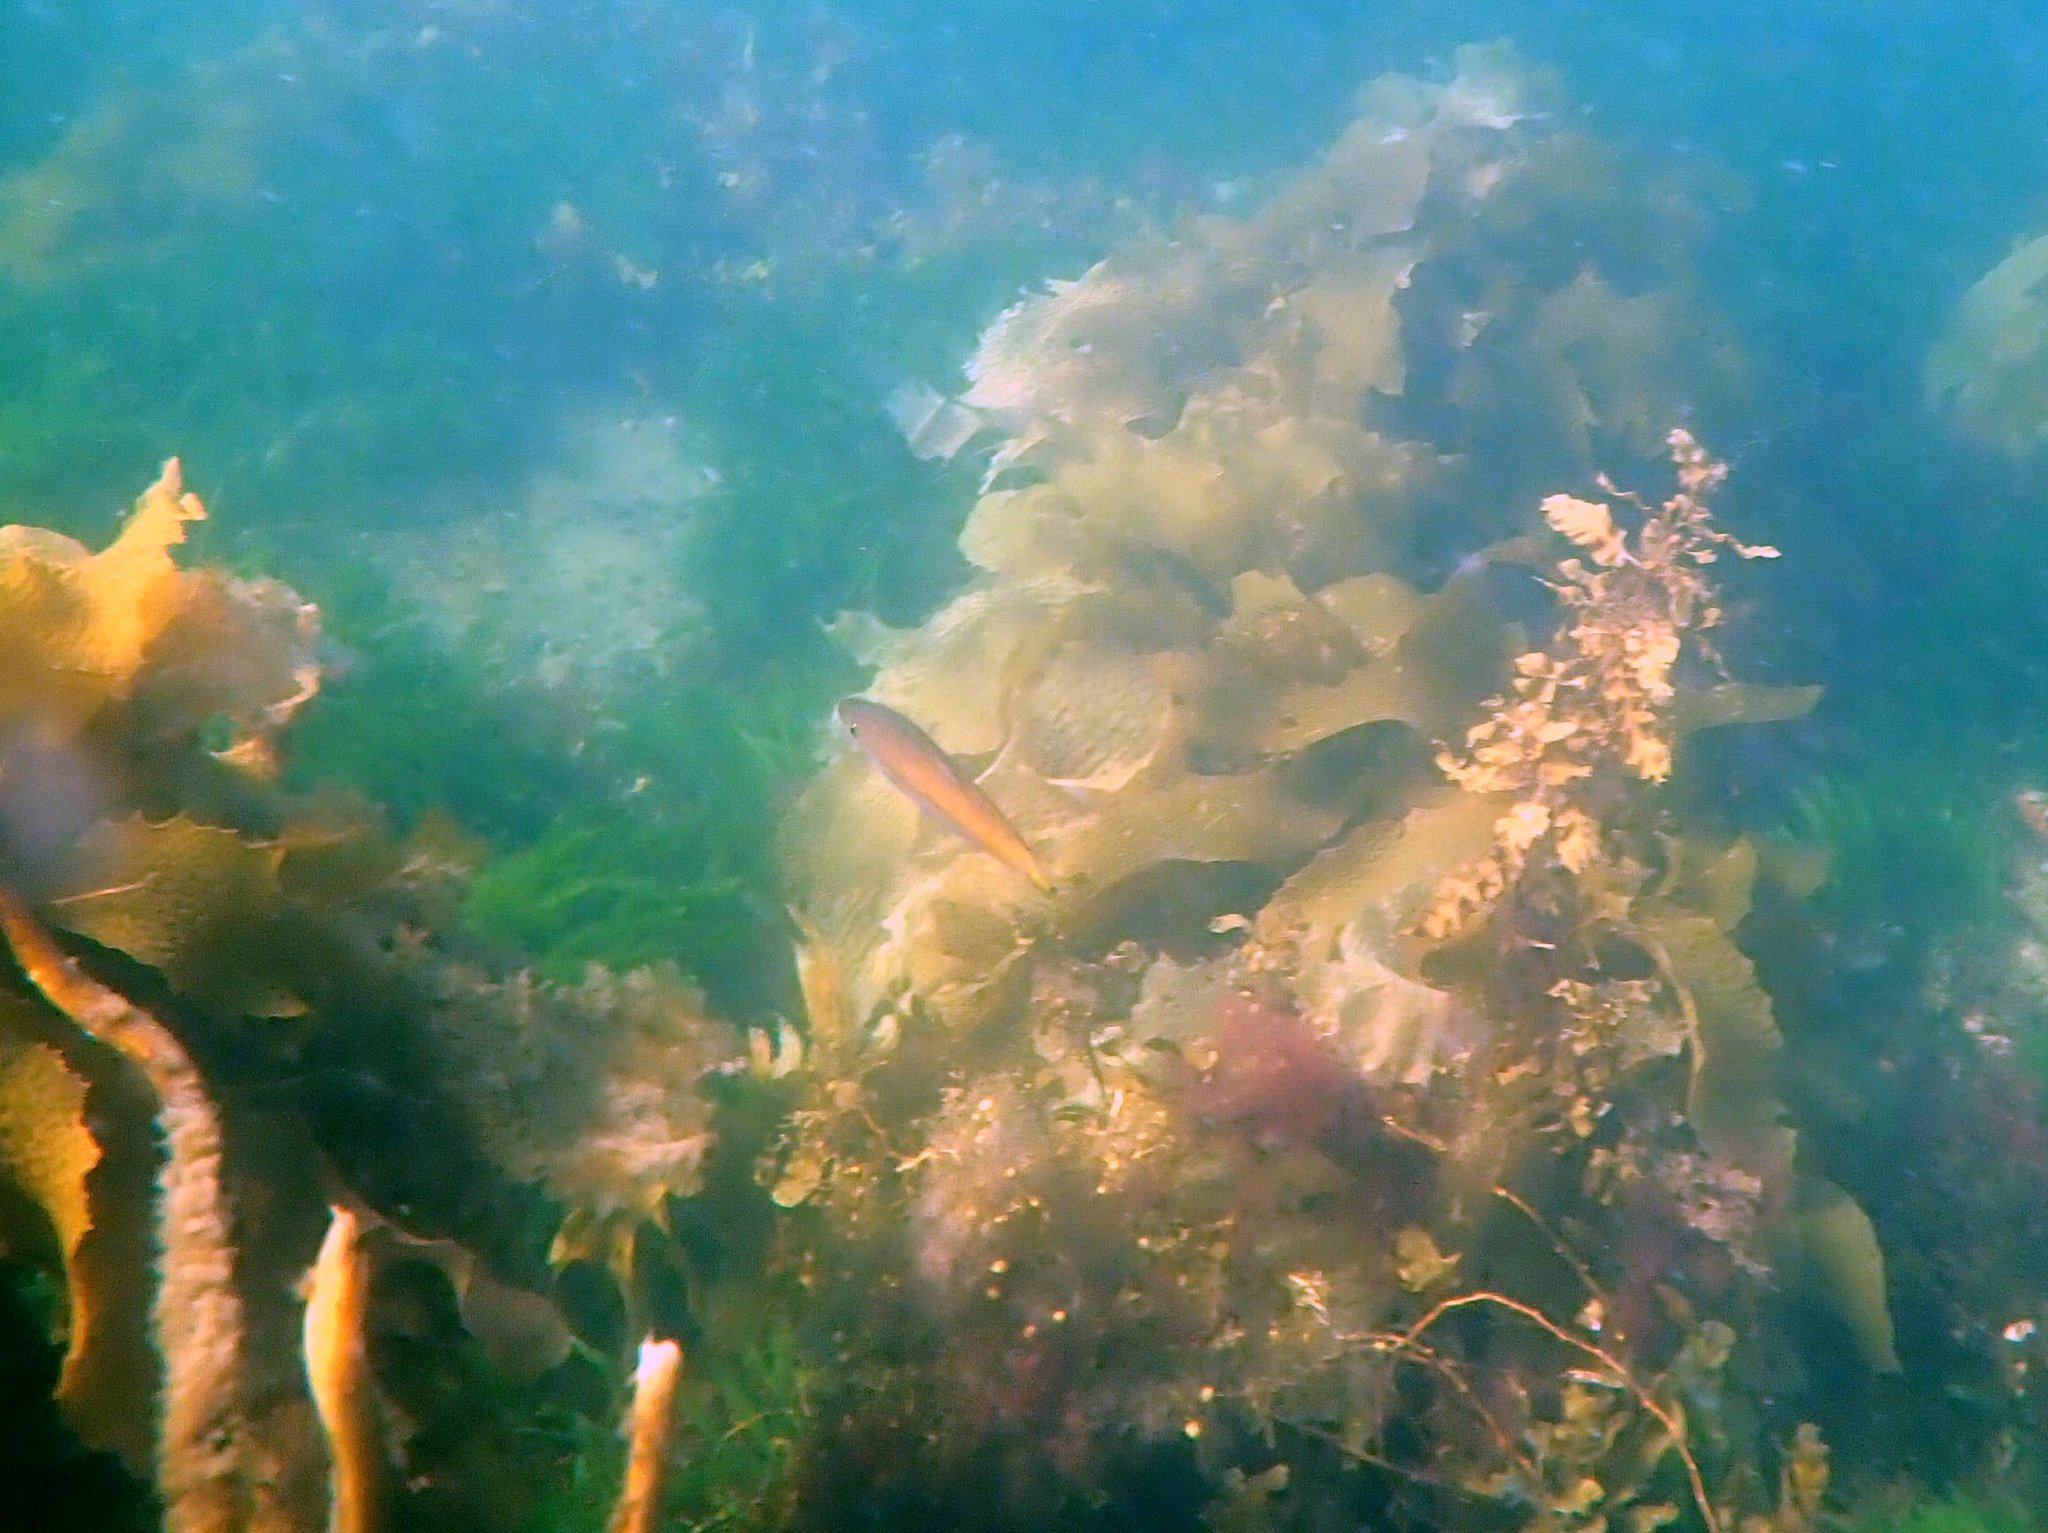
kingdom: Animalia
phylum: Chordata
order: Perciformes
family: Dinolestidae
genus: Dinolestes
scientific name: Dinolestes lewini
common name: Jack pike
